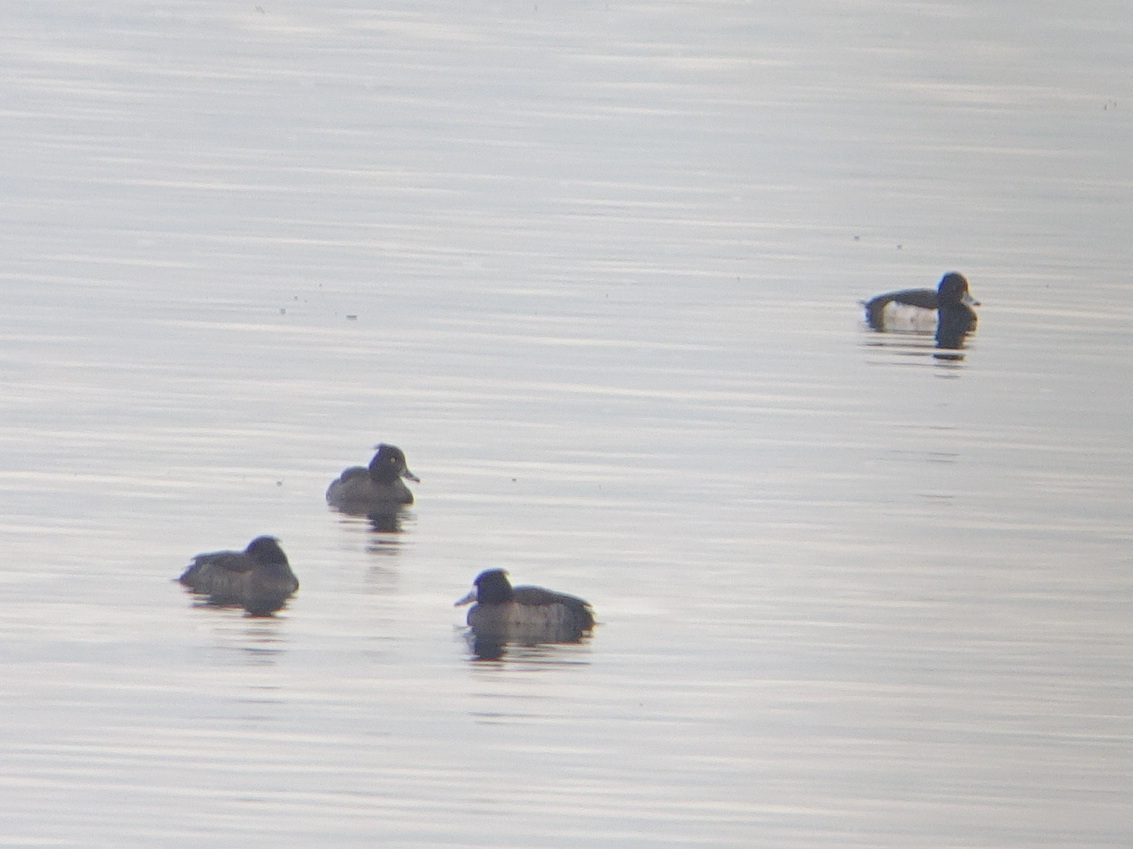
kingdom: Animalia
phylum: Chordata
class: Aves
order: Anseriformes
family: Anatidae
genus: Aythya
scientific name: Aythya fuligula
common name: Tufted duck
